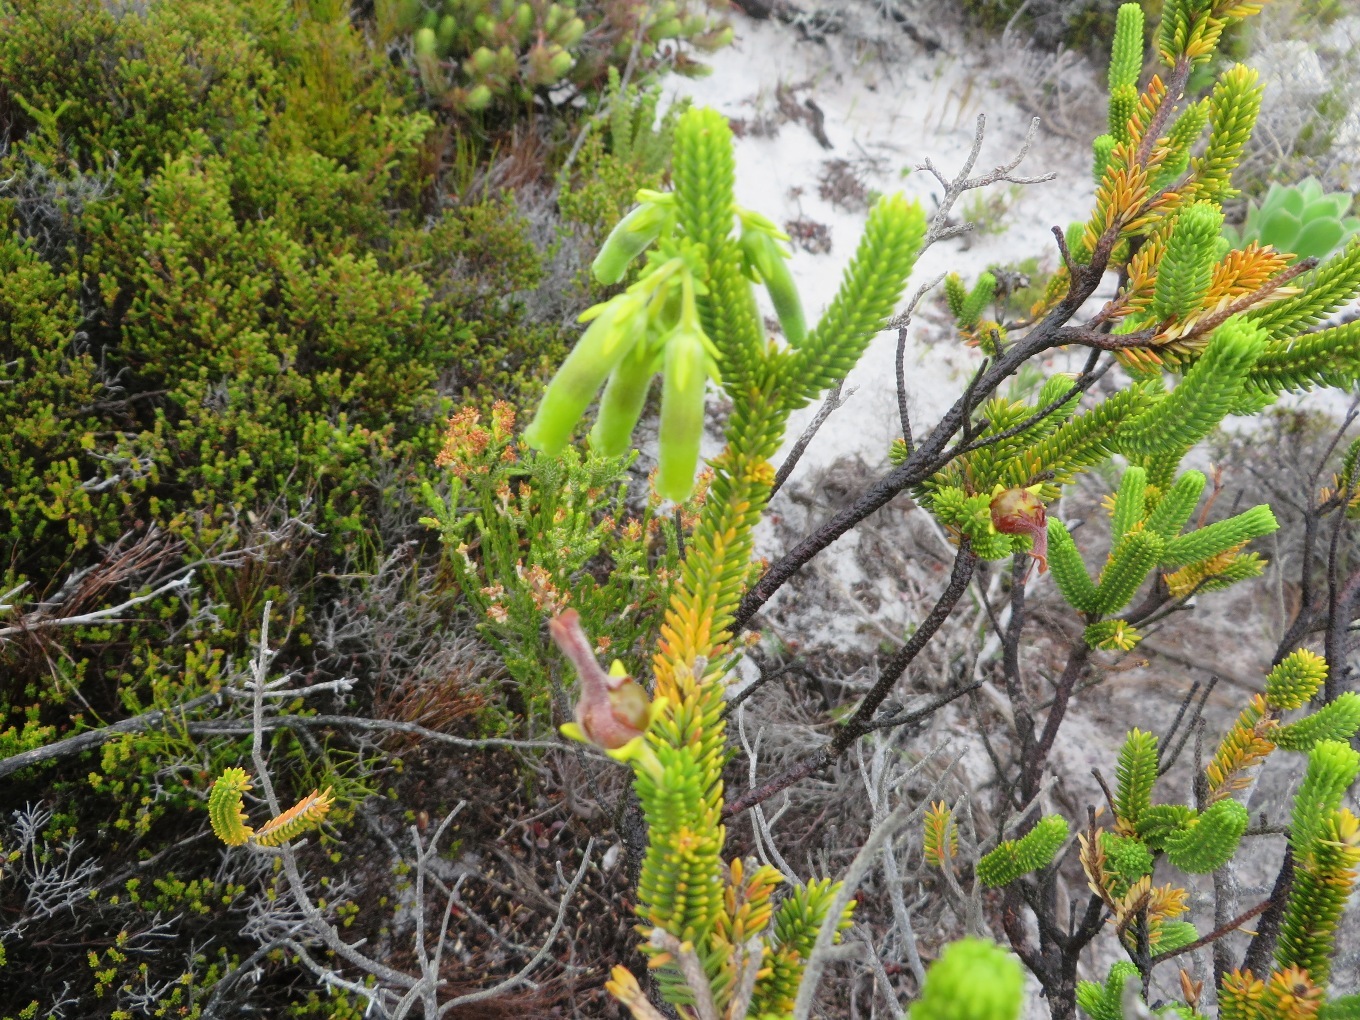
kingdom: Plantae
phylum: Tracheophyta
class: Magnoliopsida
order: Ericales
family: Ericaceae
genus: Erica
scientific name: Erica brachialis
